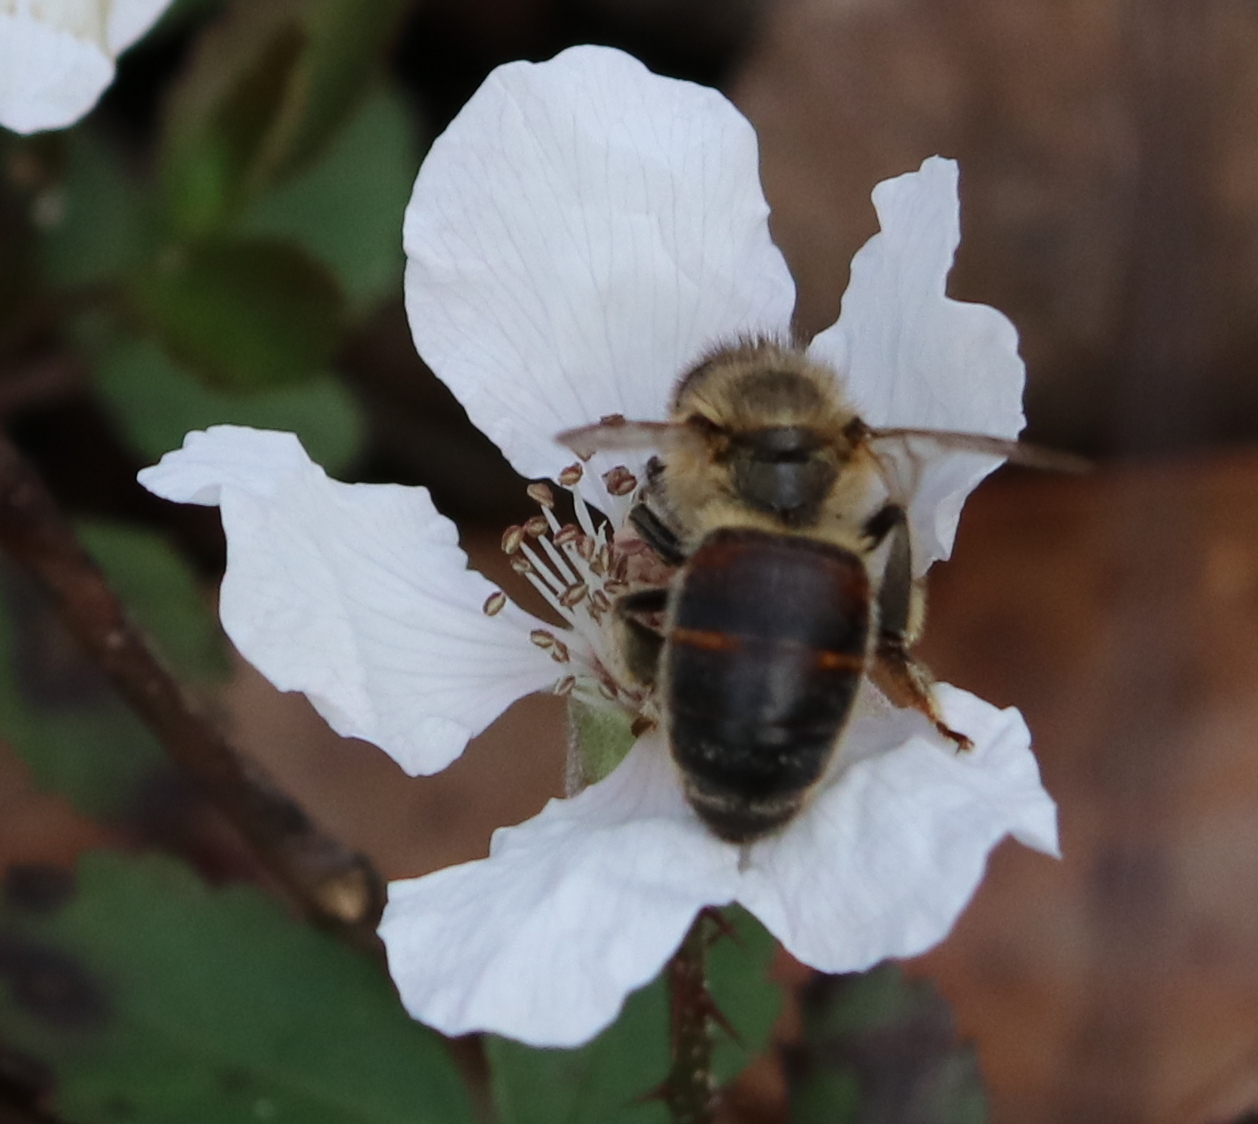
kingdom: Animalia
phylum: Arthropoda
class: Insecta
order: Hymenoptera
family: Apidae
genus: Apis
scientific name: Apis mellifera
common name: Honey bee
